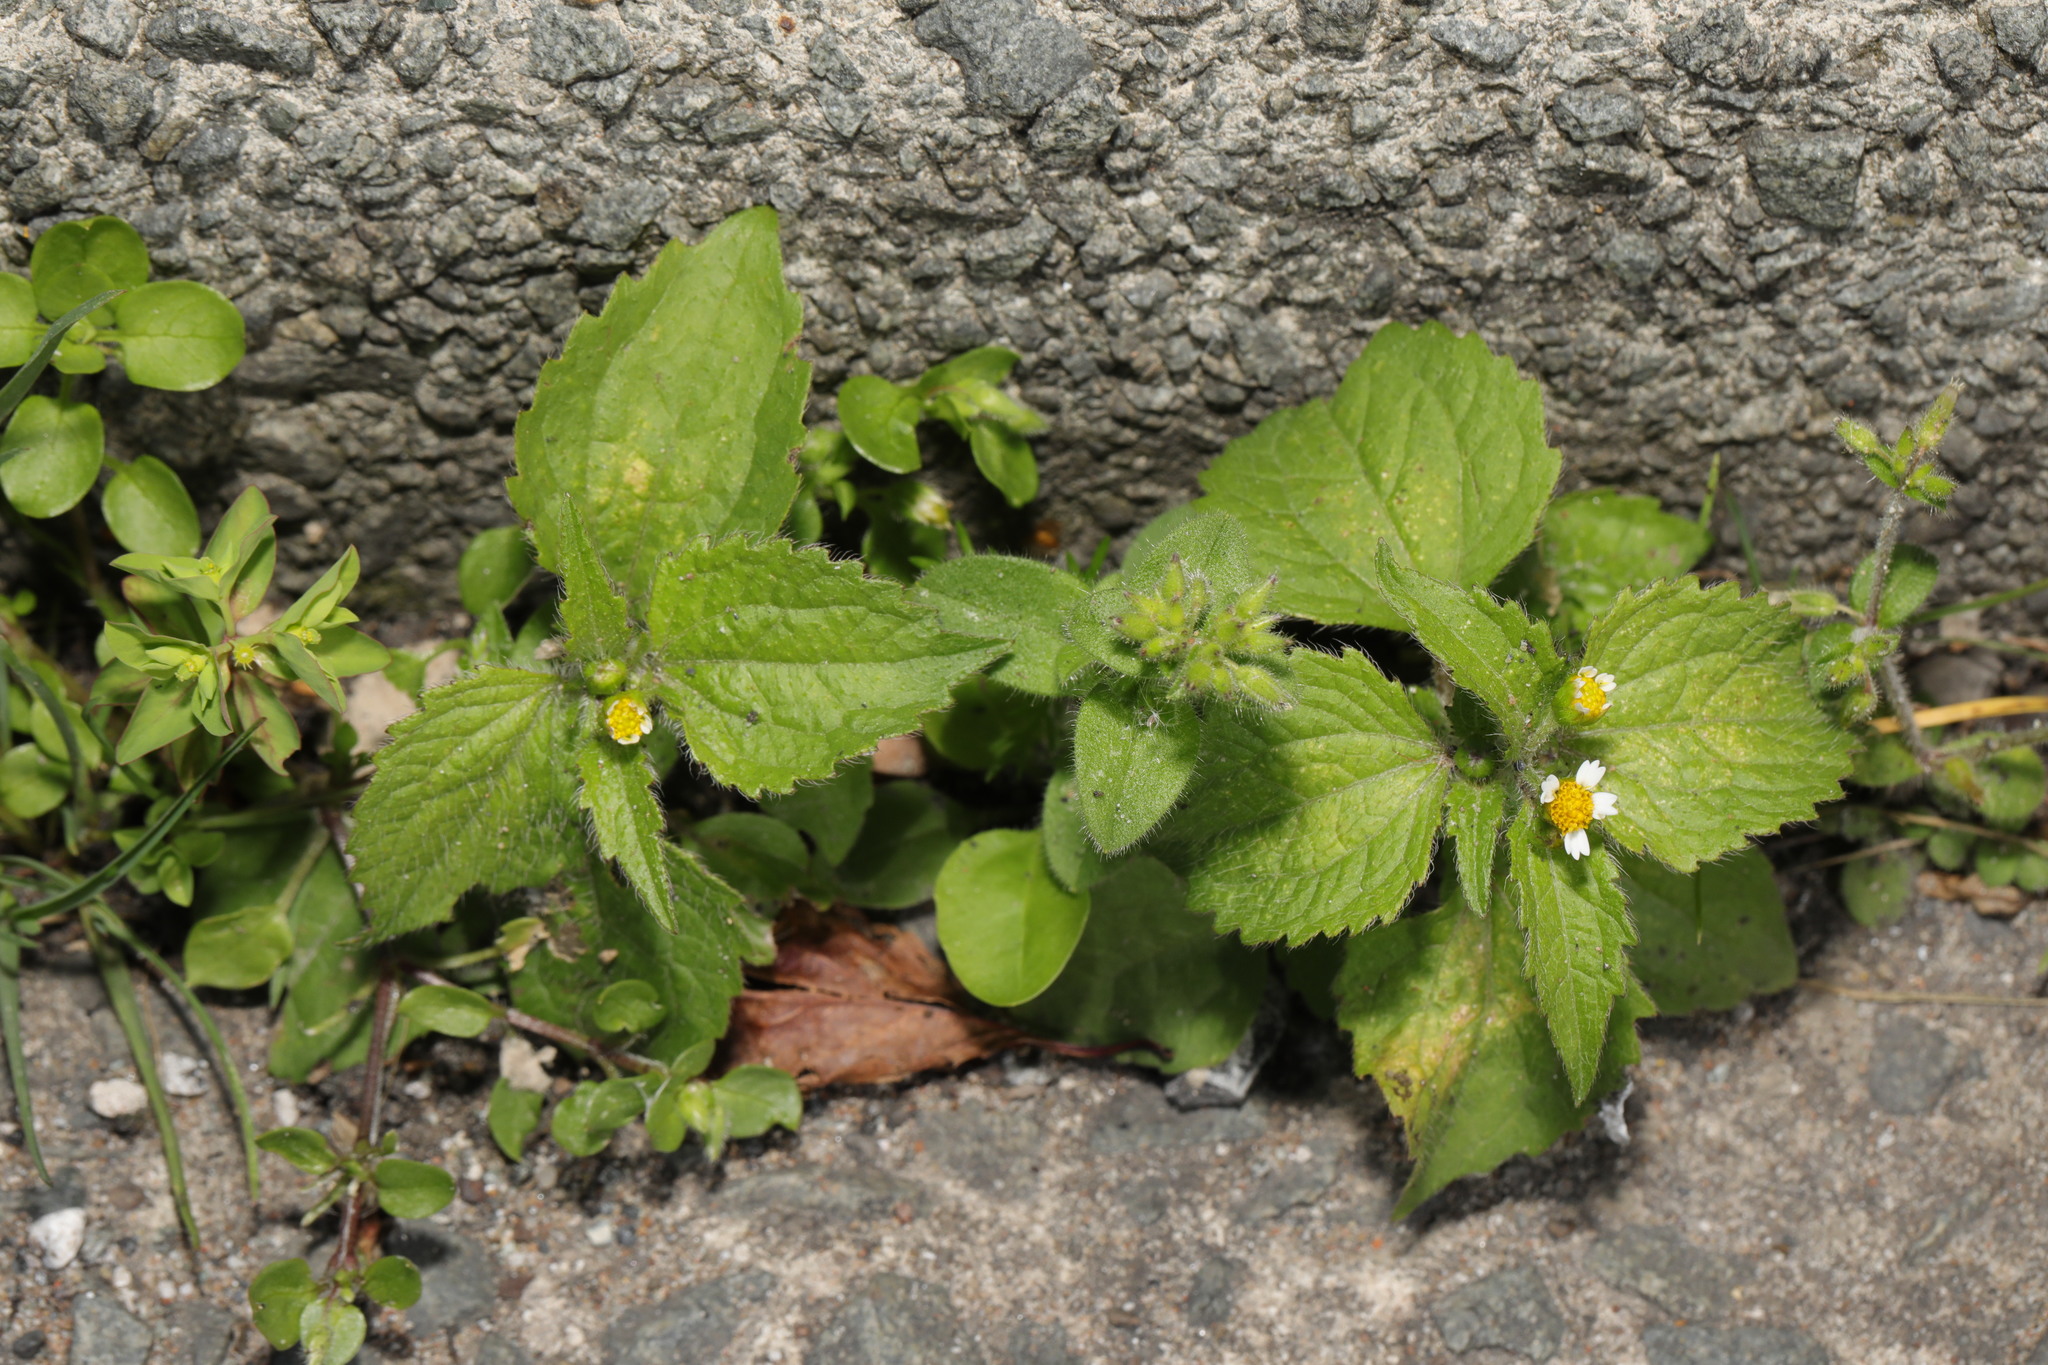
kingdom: Plantae
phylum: Tracheophyta
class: Magnoliopsida
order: Asterales
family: Asteraceae
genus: Galinsoga
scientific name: Galinsoga quadriradiata
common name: Shaggy soldier
